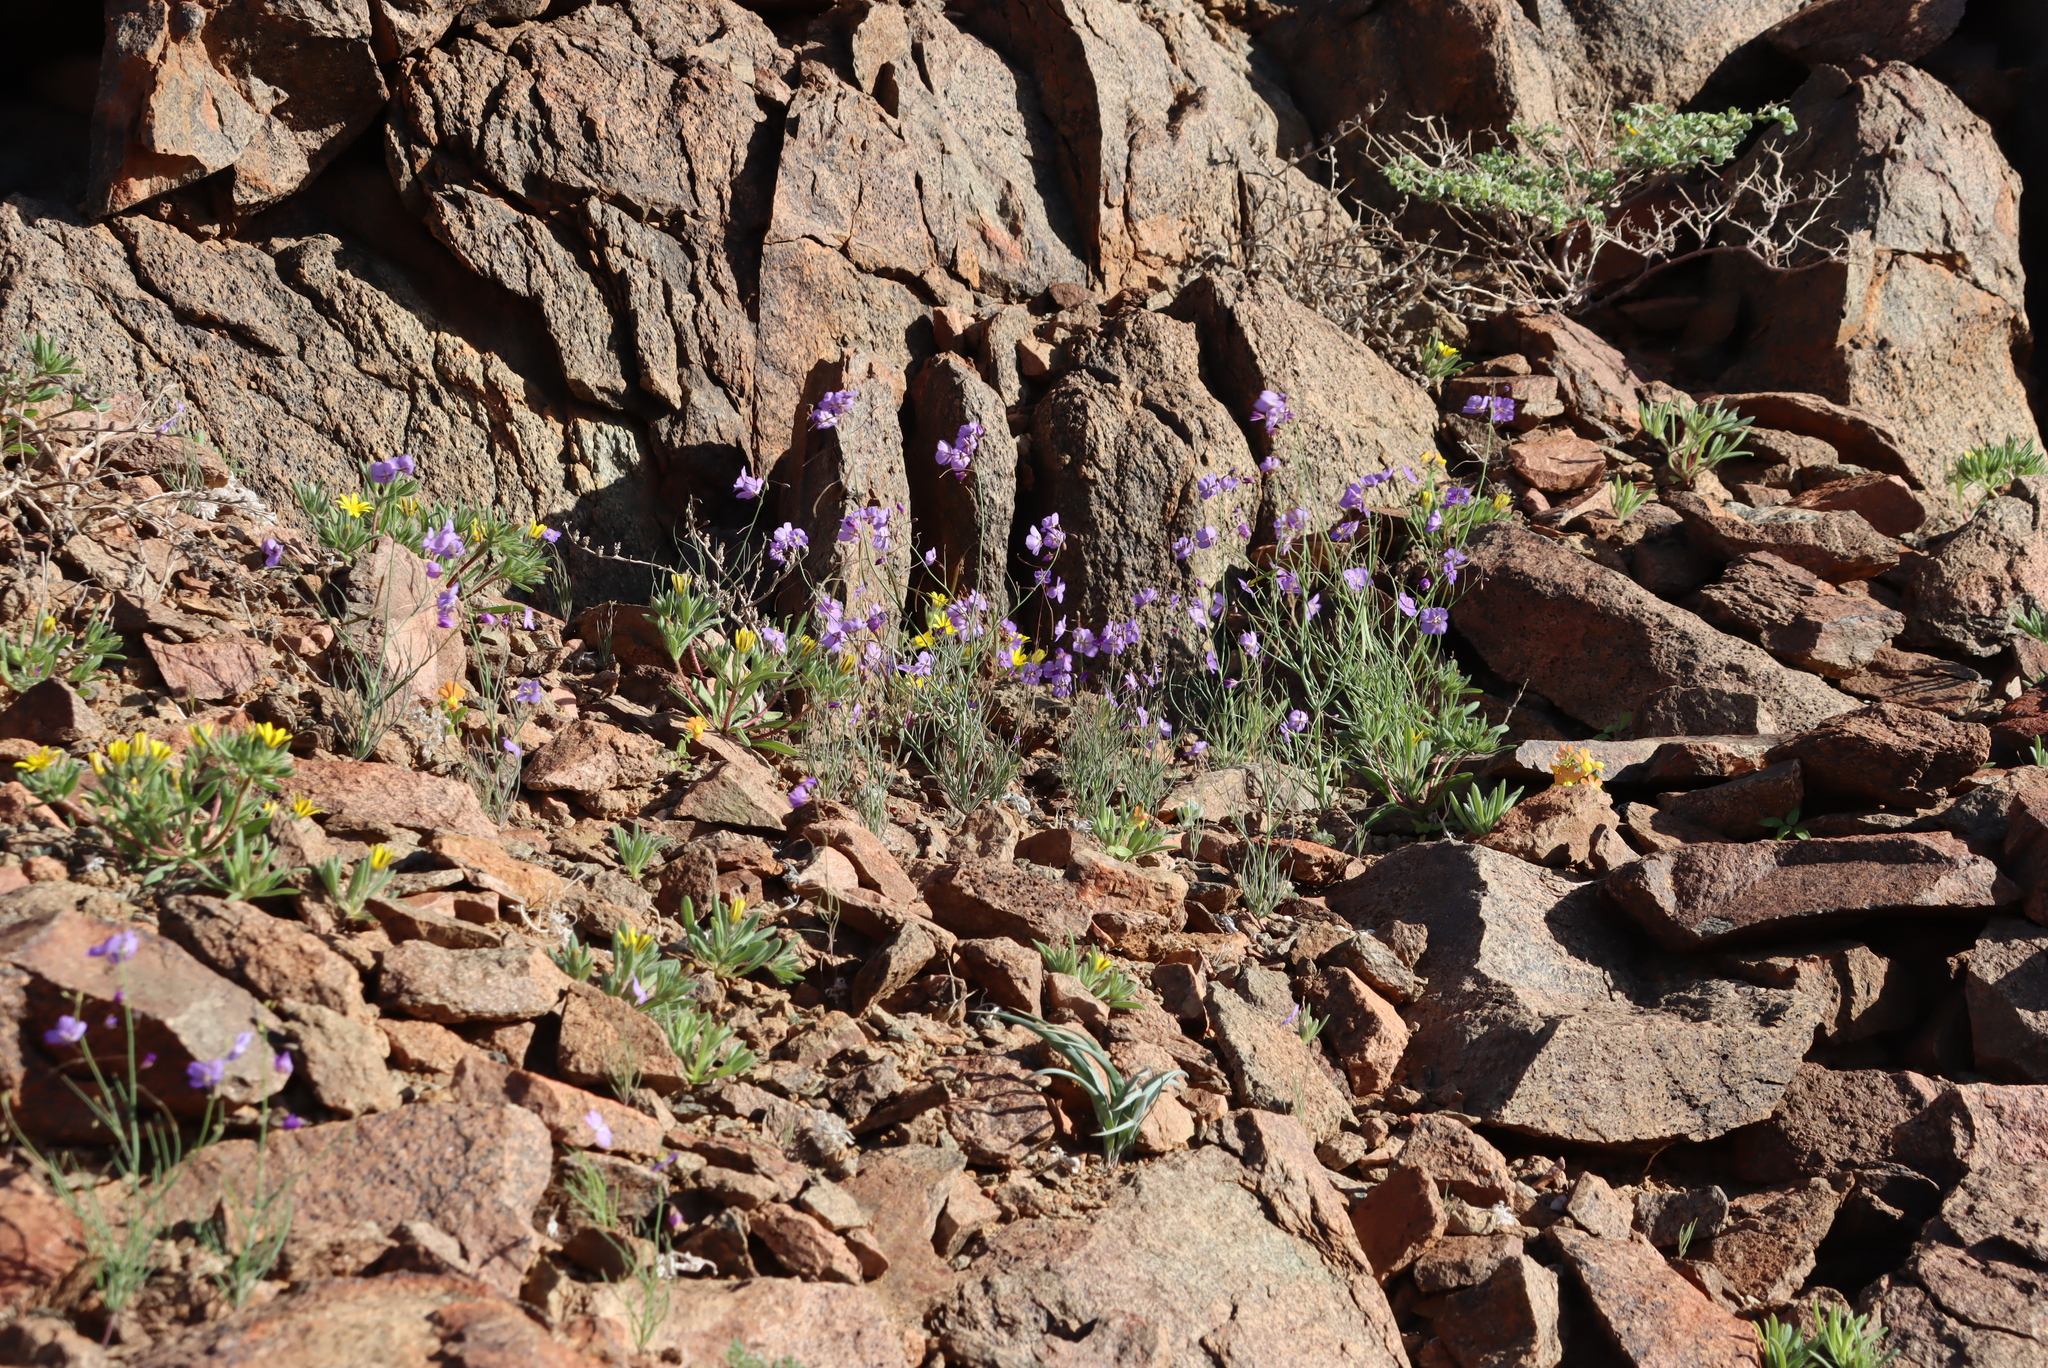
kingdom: Plantae
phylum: Tracheophyta
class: Magnoliopsida
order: Brassicales
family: Brassicaceae
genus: Heliophila
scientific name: Heliophila trifurca
